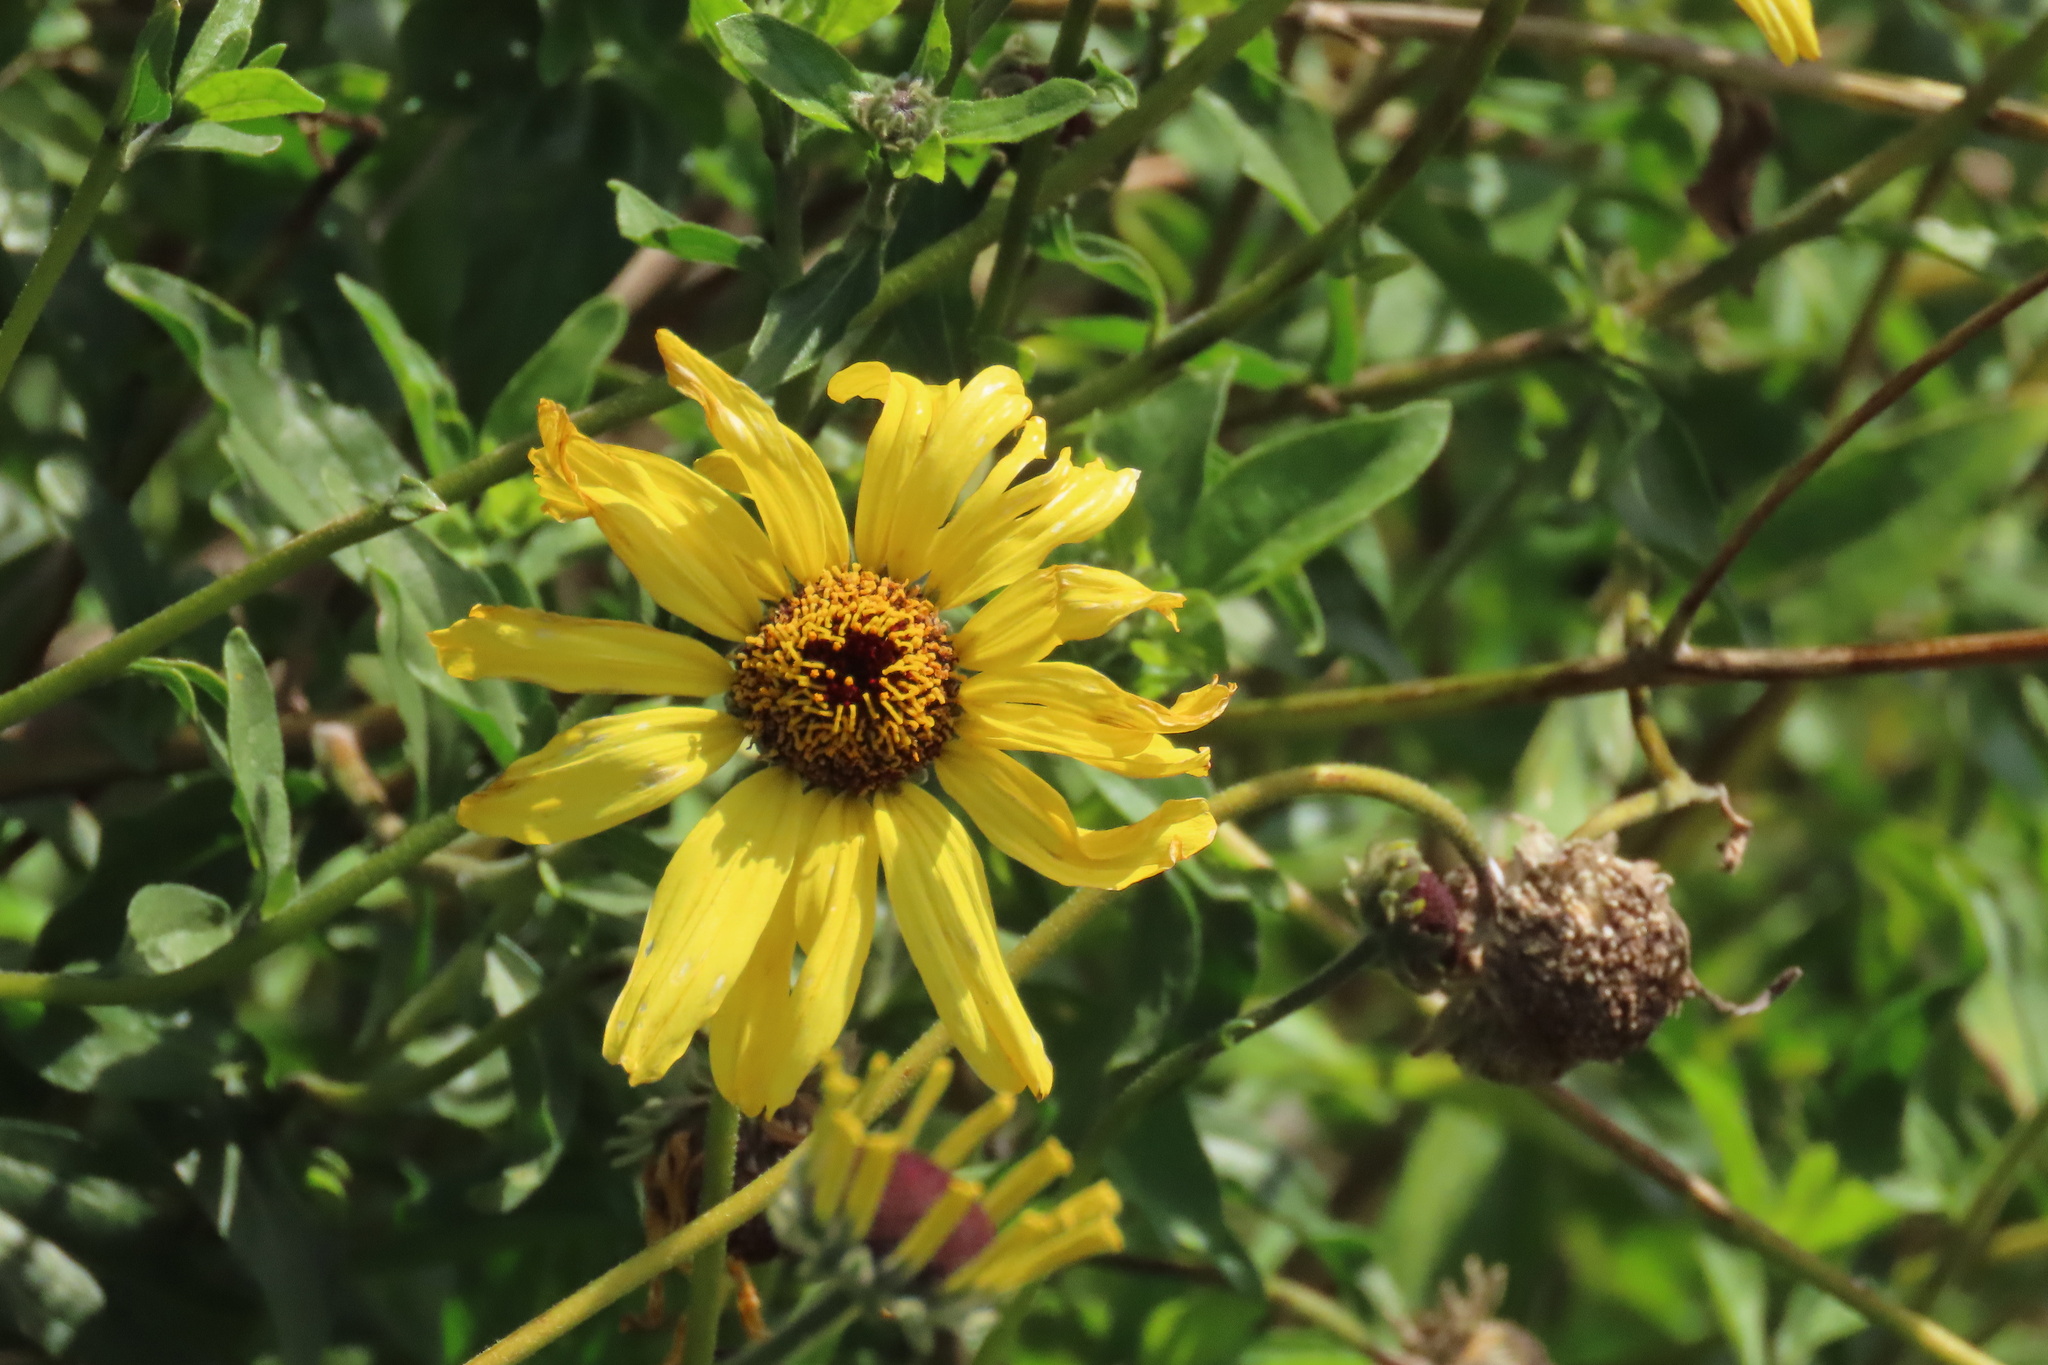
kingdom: Plantae
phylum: Tracheophyta
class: Magnoliopsida
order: Asterales
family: Asteraceae
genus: Encelia
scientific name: Encelia californica
